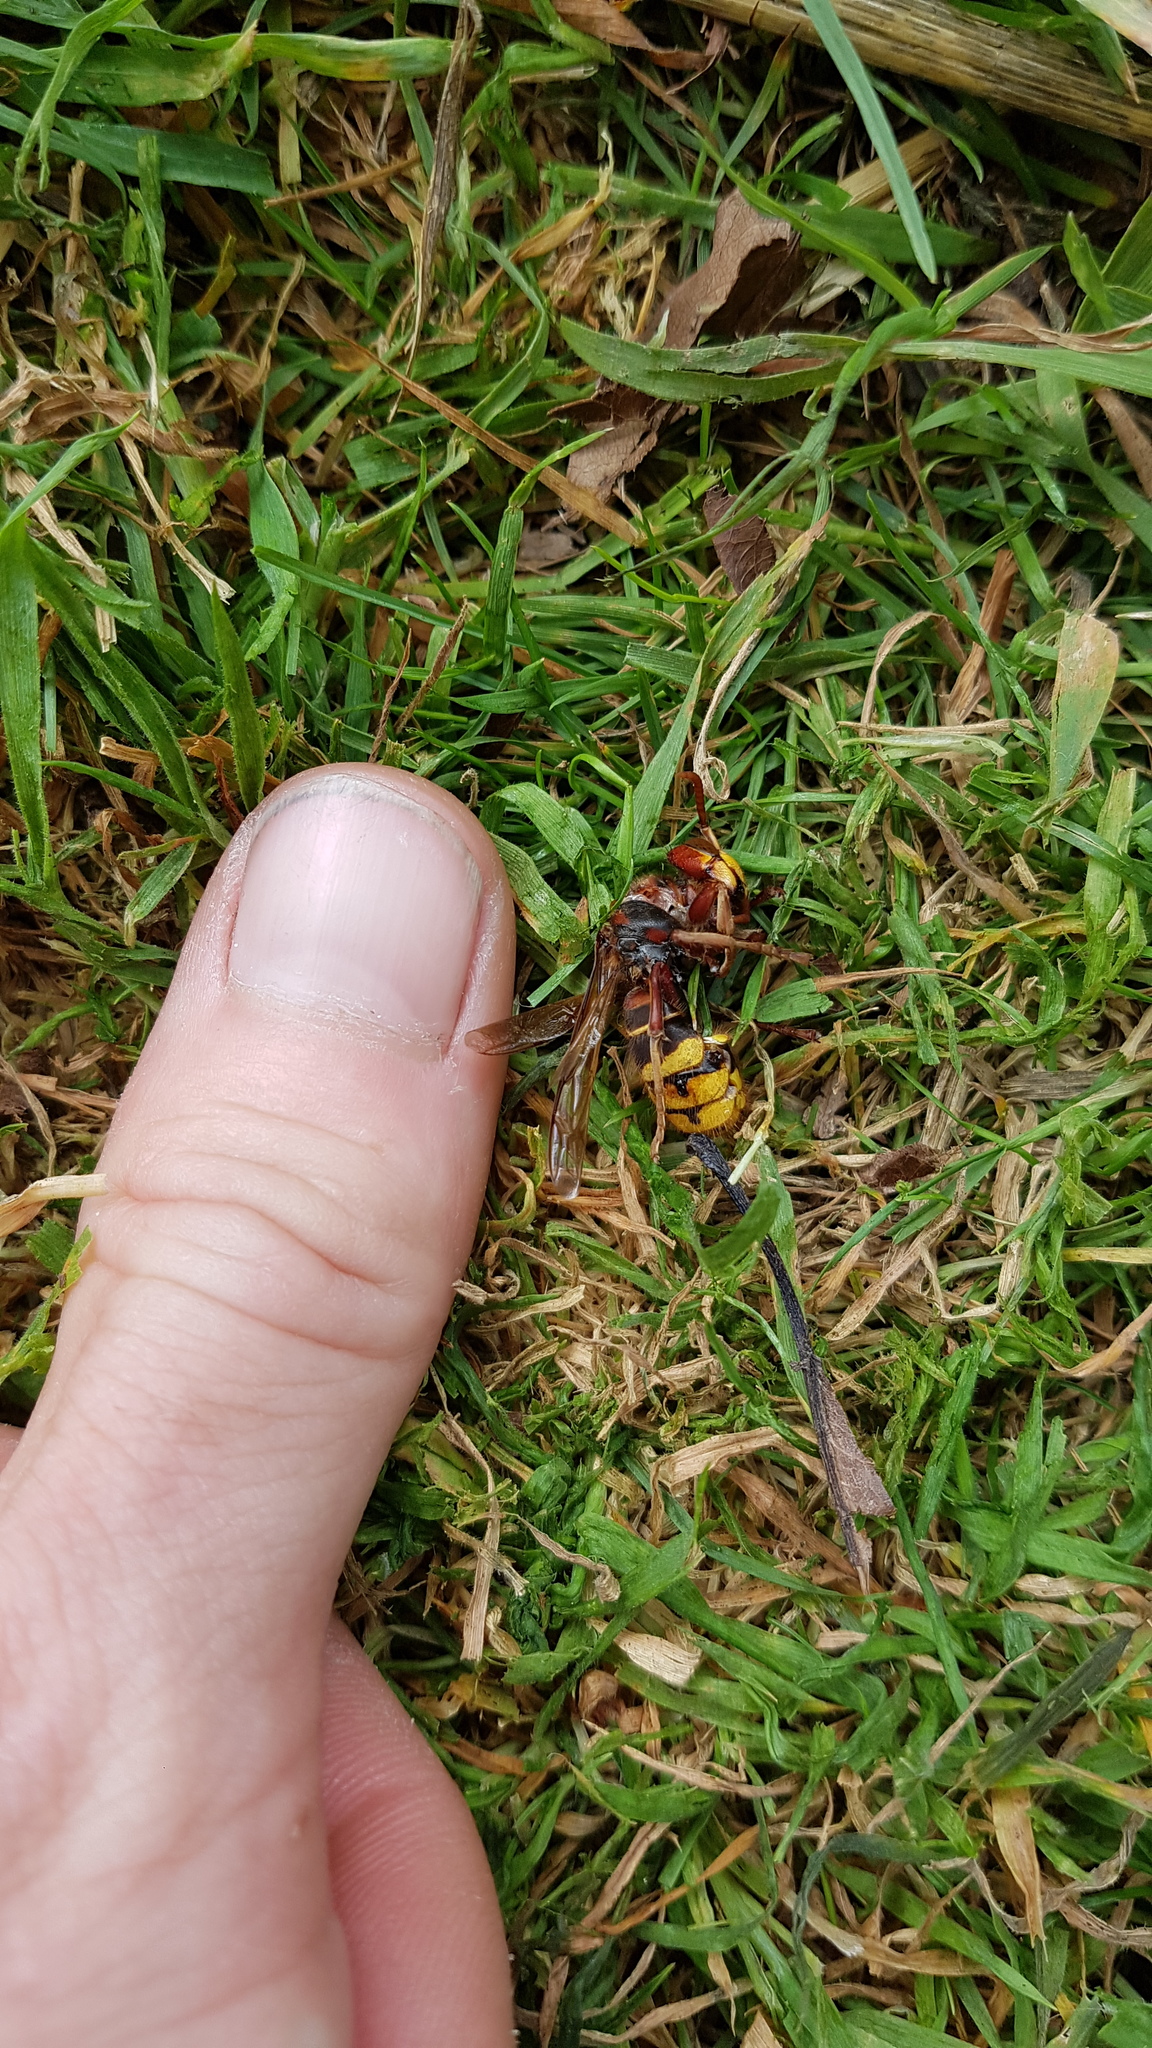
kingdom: Animalia
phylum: Arthropoda
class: Insecta
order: Hymenoptera
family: Vespidae
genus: Vespa
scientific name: Vespa crabro
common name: Hornet
